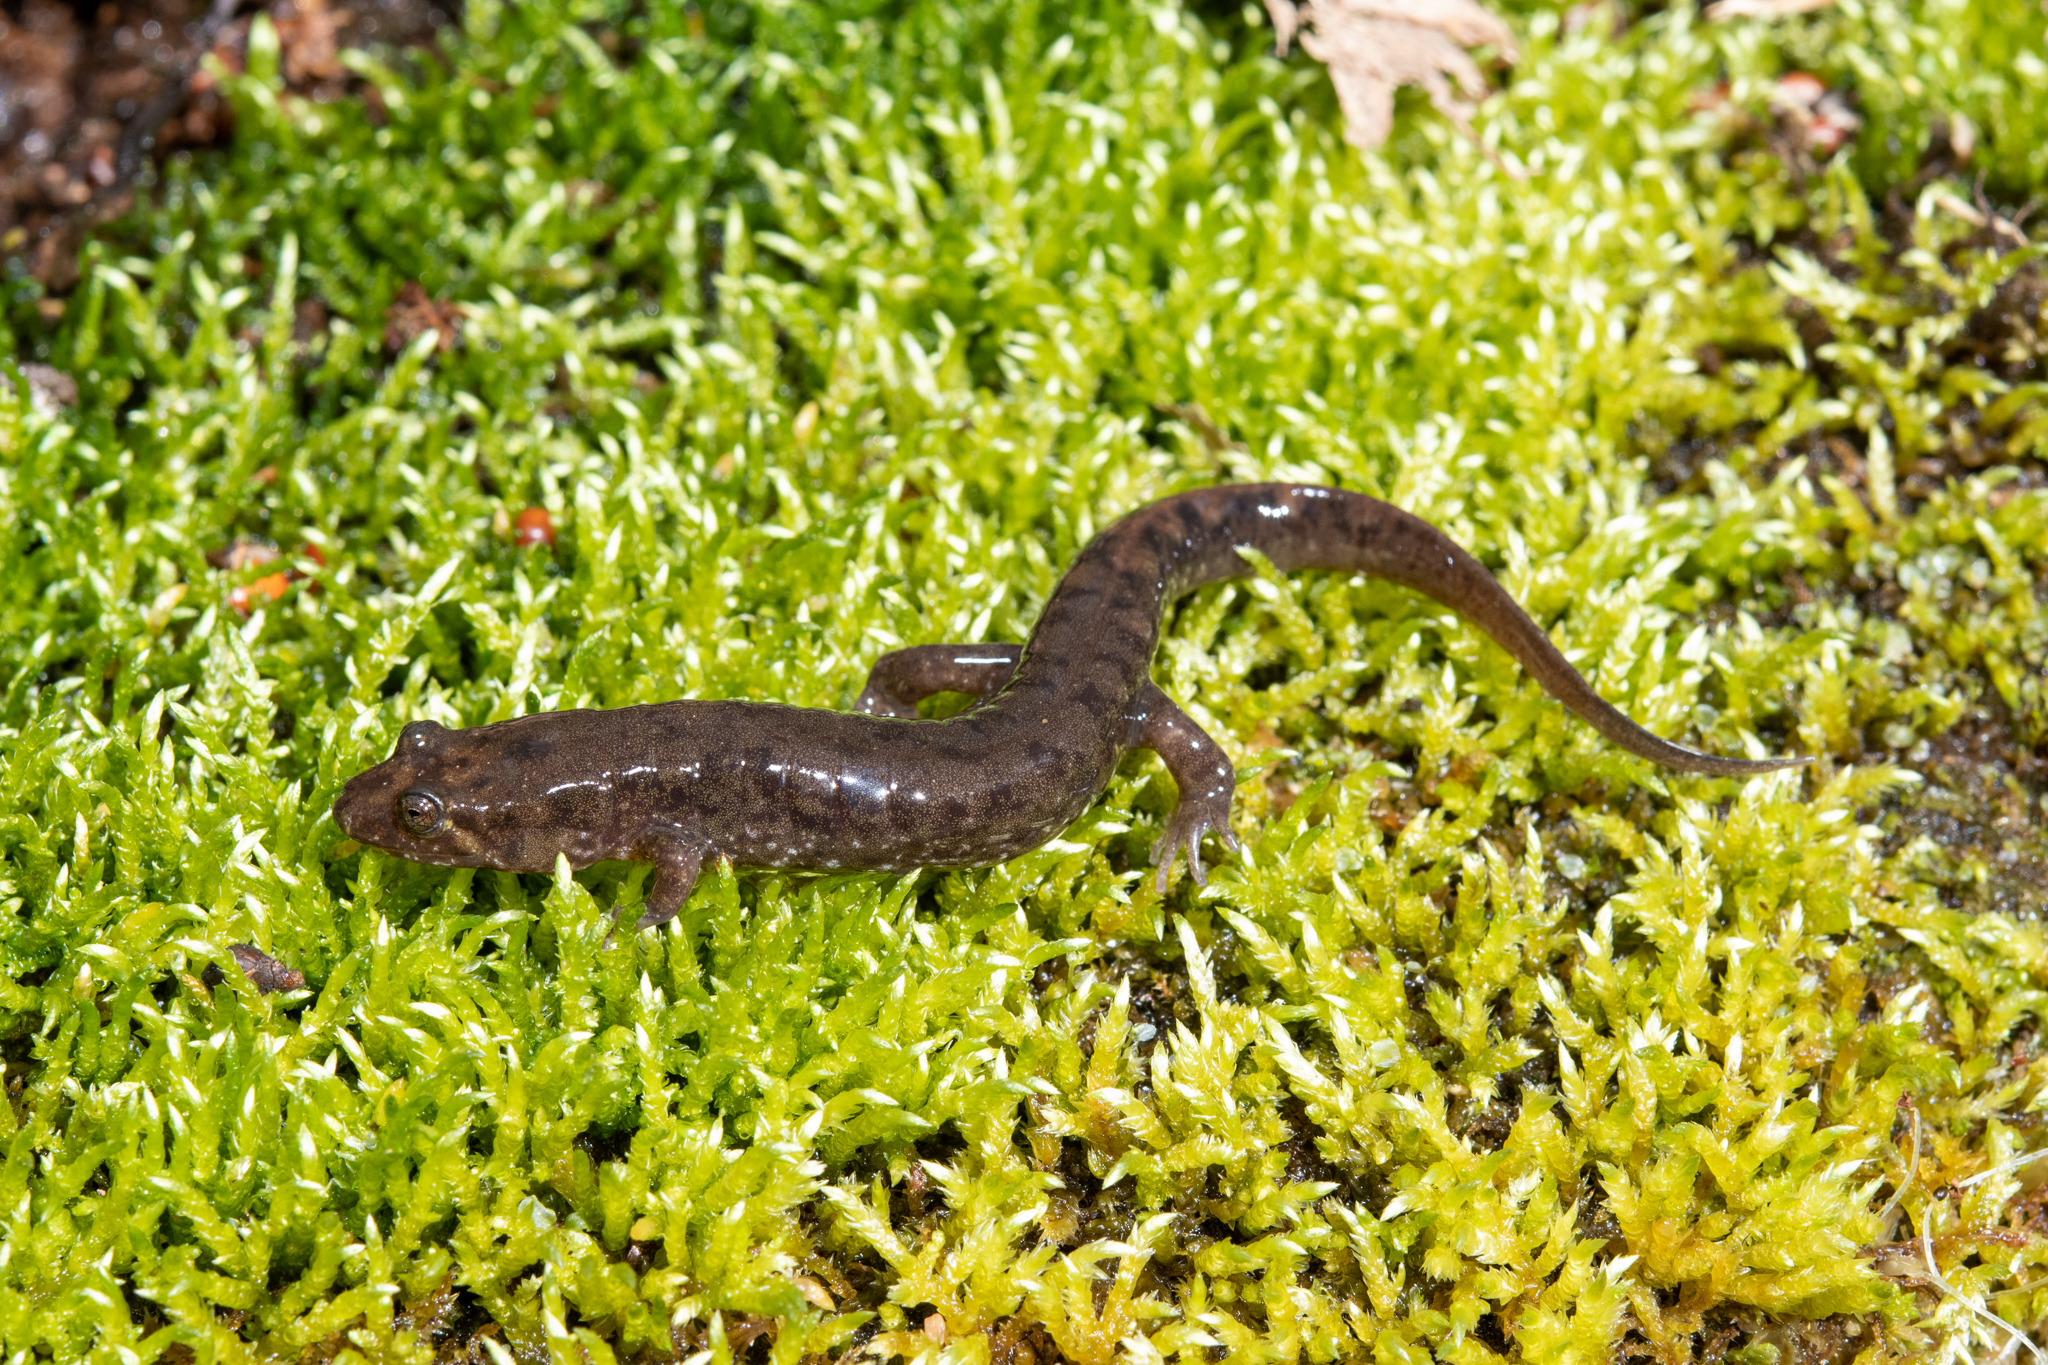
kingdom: Animalia
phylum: Chordata
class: Amphibia
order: Caudata
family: Plethodontidae
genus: Desmognathus
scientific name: Desmognathus monticola
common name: Seal salamander
